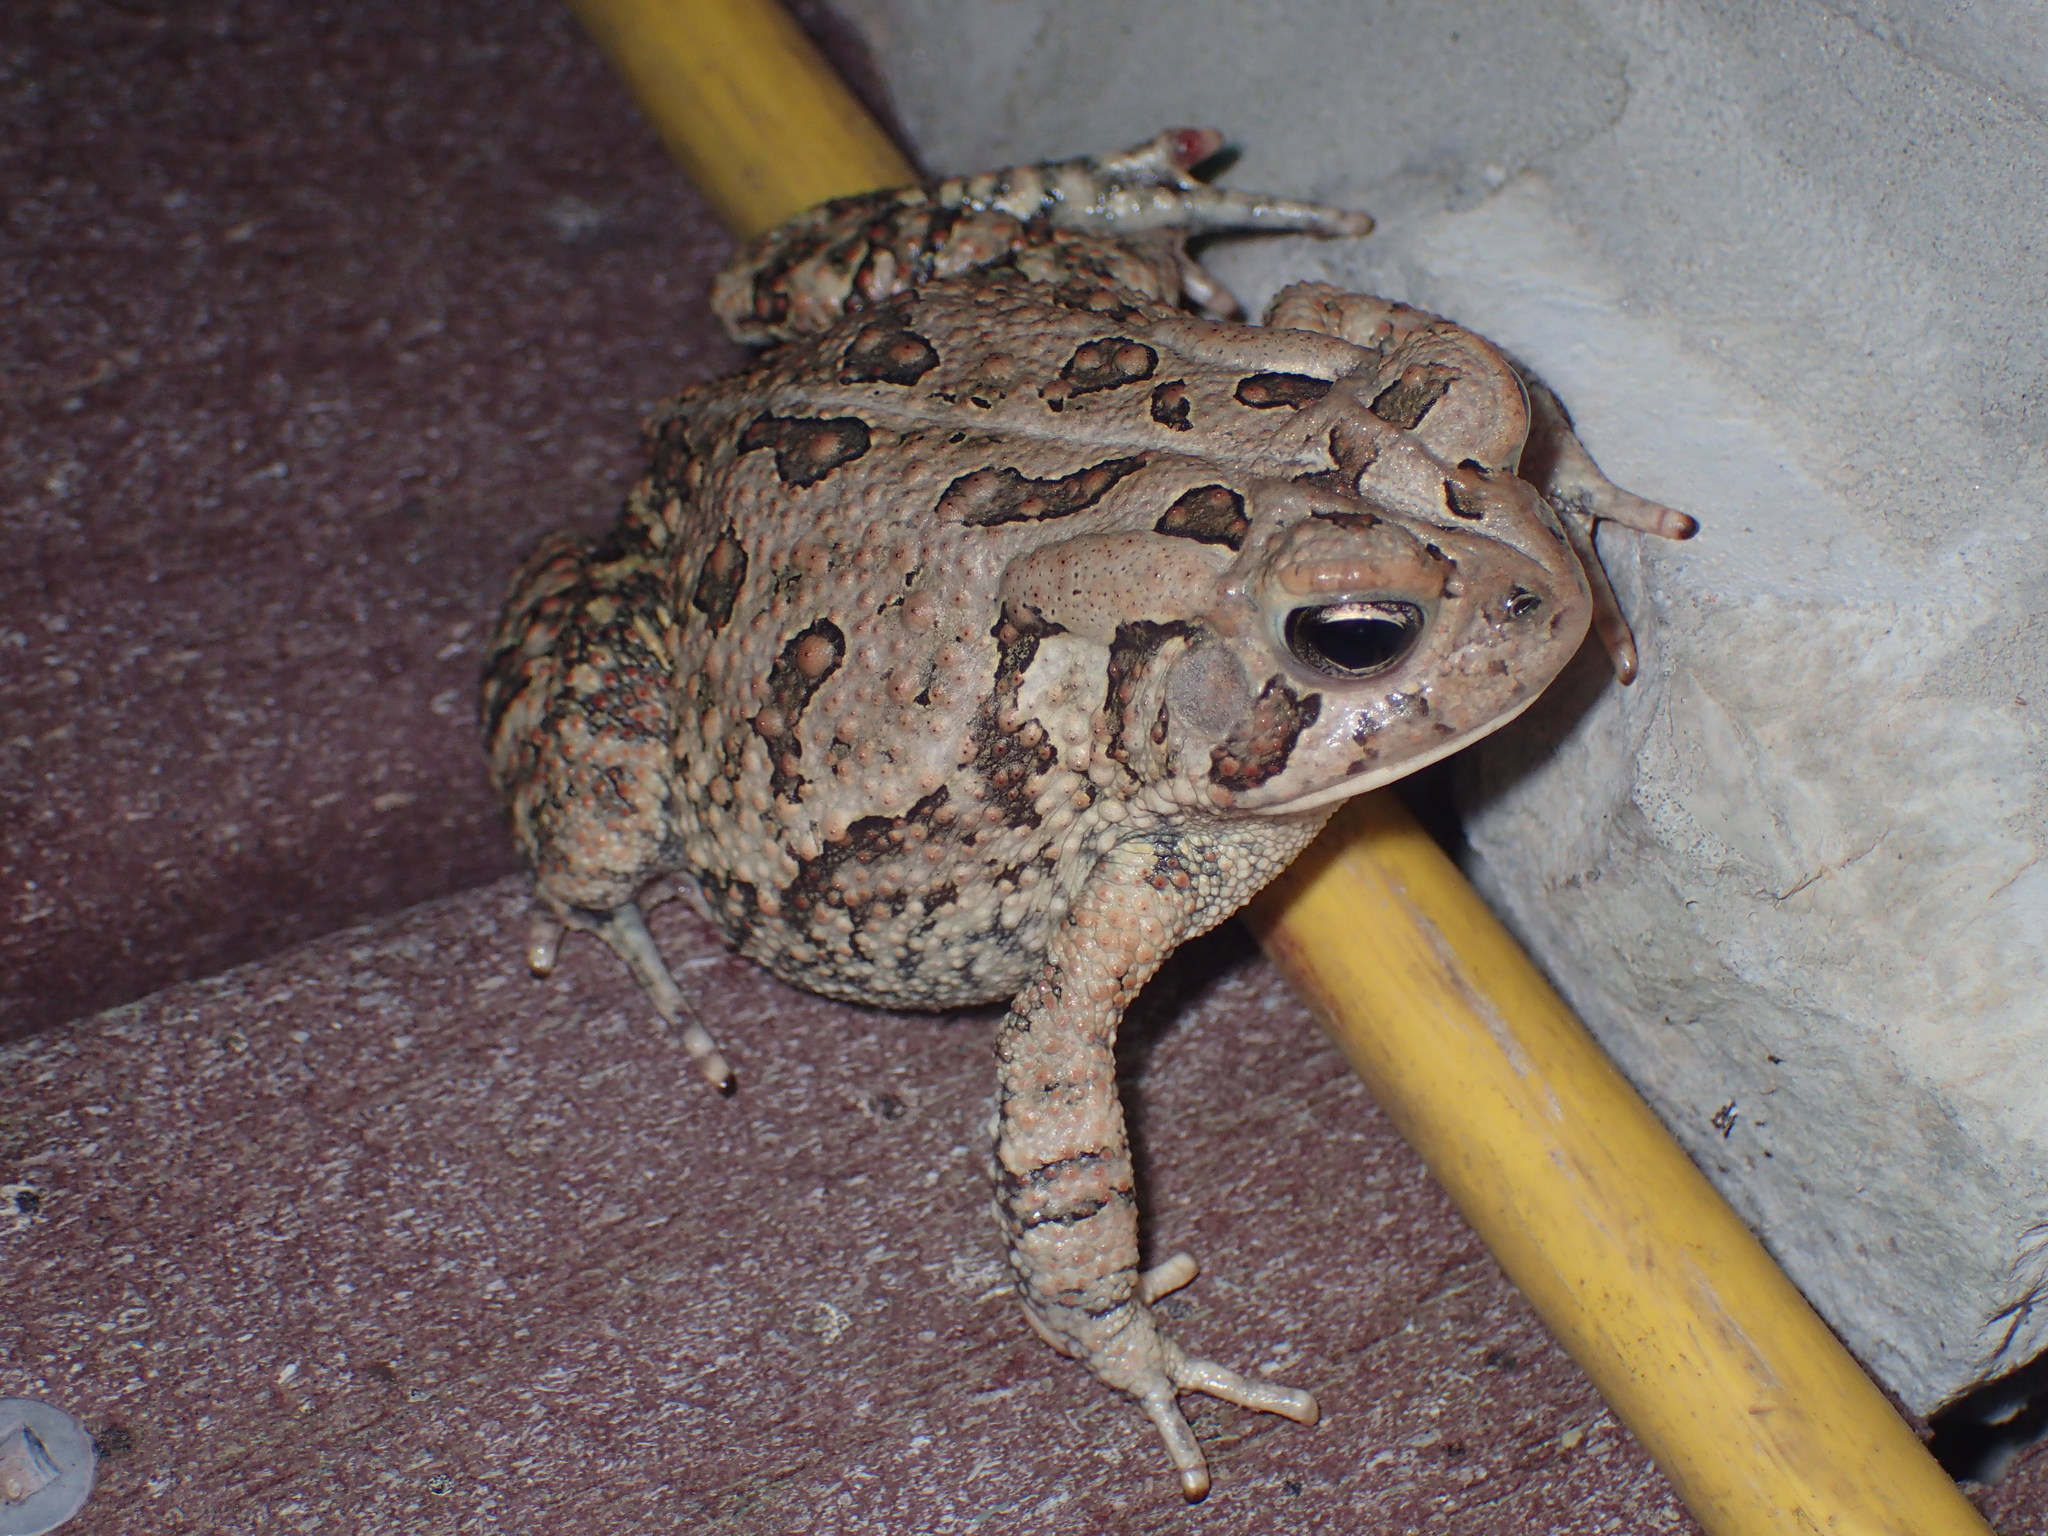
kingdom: Animalia
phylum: Chordata
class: Amphibia
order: Anura
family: Bufonidae
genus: Anaxyrus
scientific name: Anaxyrus fowleri
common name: Fowler's toad
